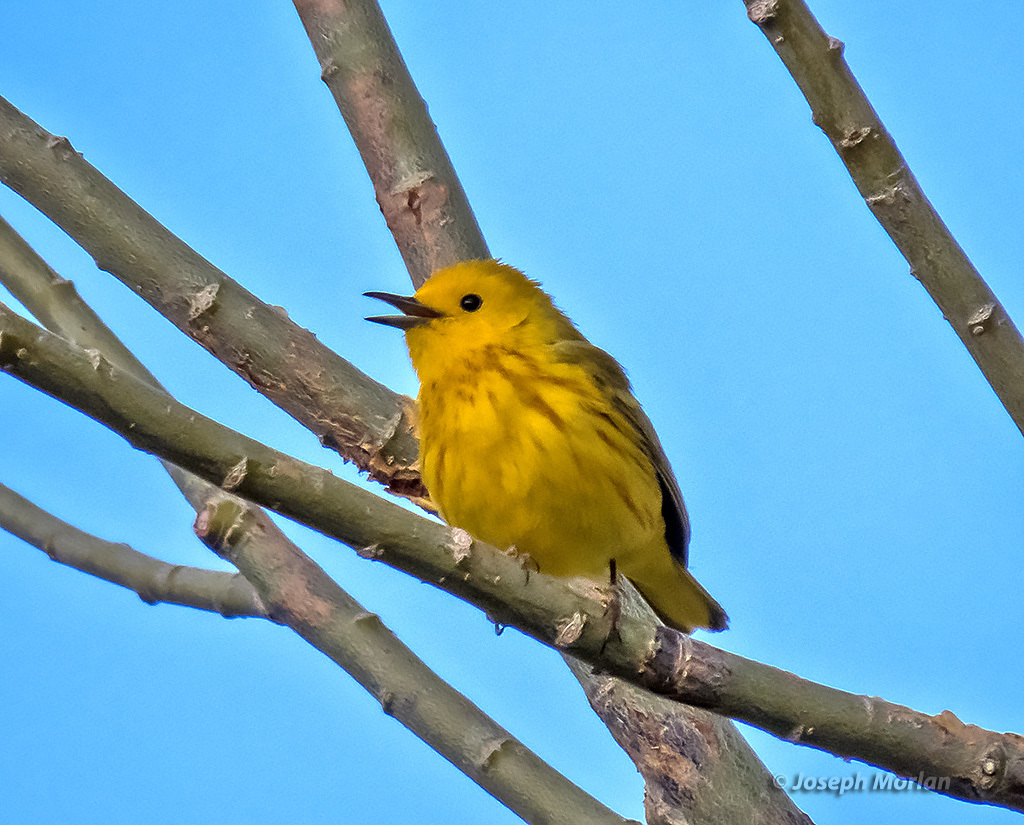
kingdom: Animalia
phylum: Chordata
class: Aves
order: Passeriformes
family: Parulidae
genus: Setophaga
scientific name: Setophaga petechia
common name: Yellow warbler
